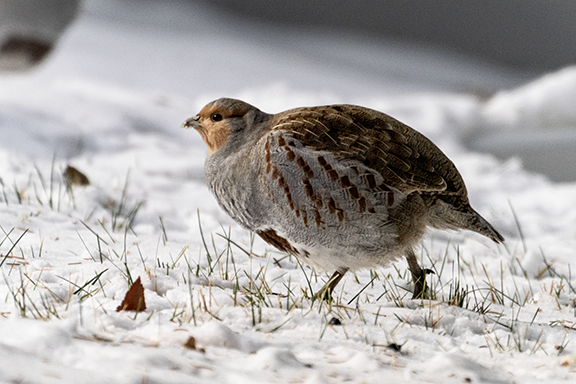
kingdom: Animalia
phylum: Chordata
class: Aves
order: Galliformes
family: Phasianidae
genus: Perdix
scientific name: Perdix perdix
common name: Grey partridge
